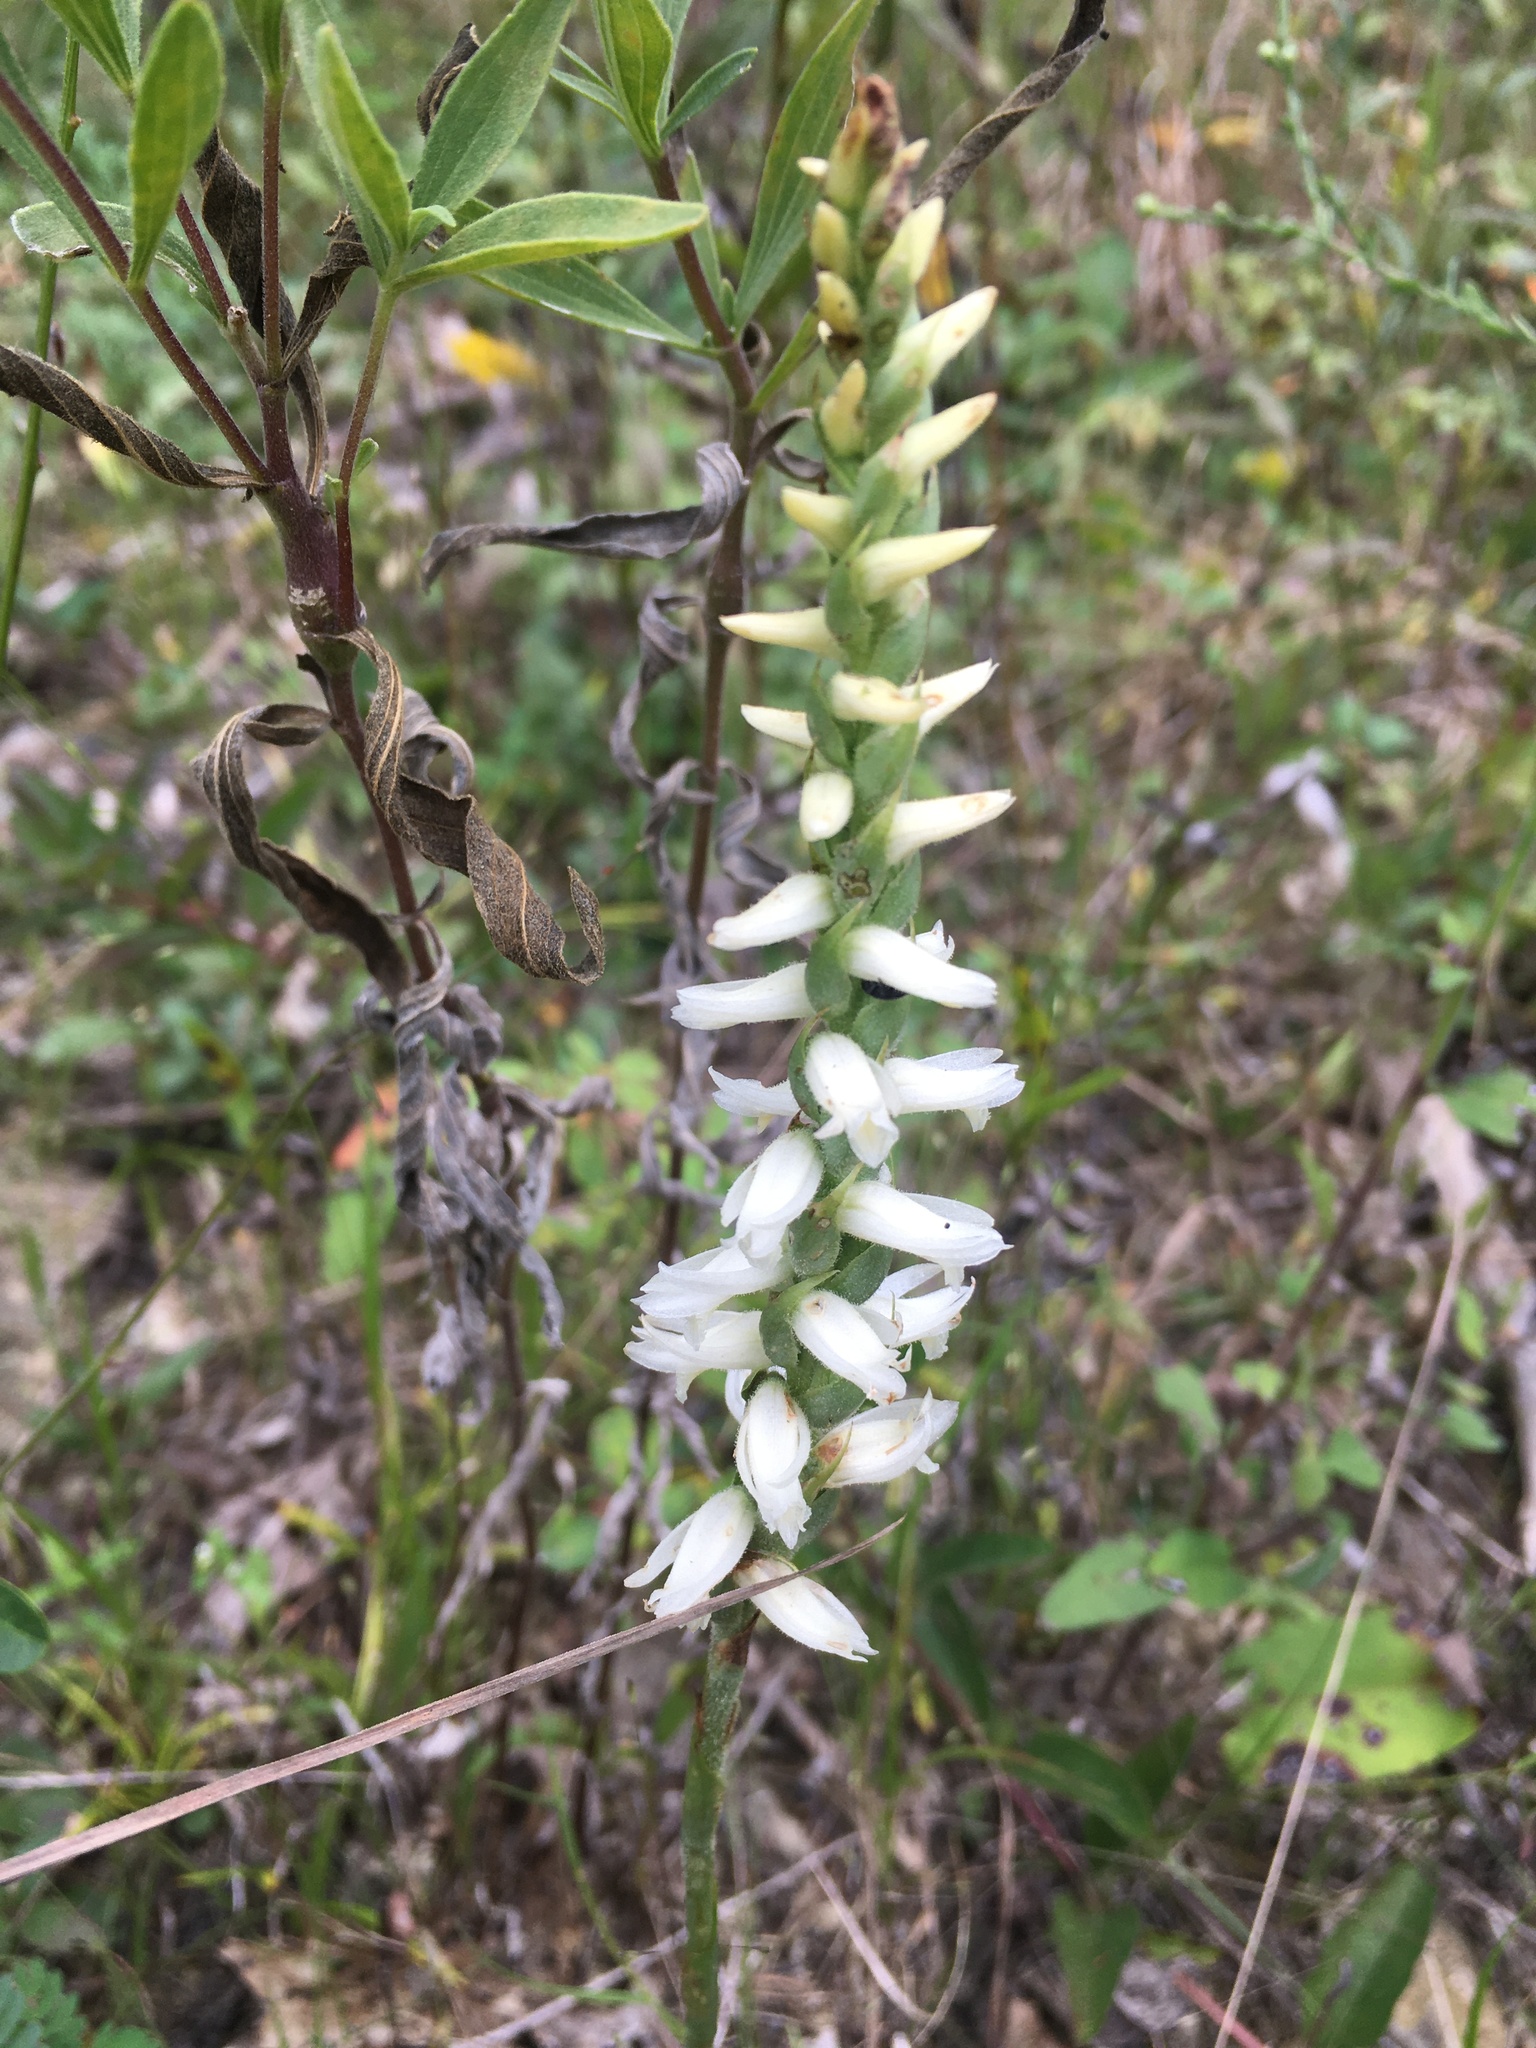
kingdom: Plantae
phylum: Tracheophyta
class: Liliopsida
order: Asparagales
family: Orchidaceae
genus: Spiranthes
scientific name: Spiranthes magnicamporum
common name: Great plains ladies'-tresses
